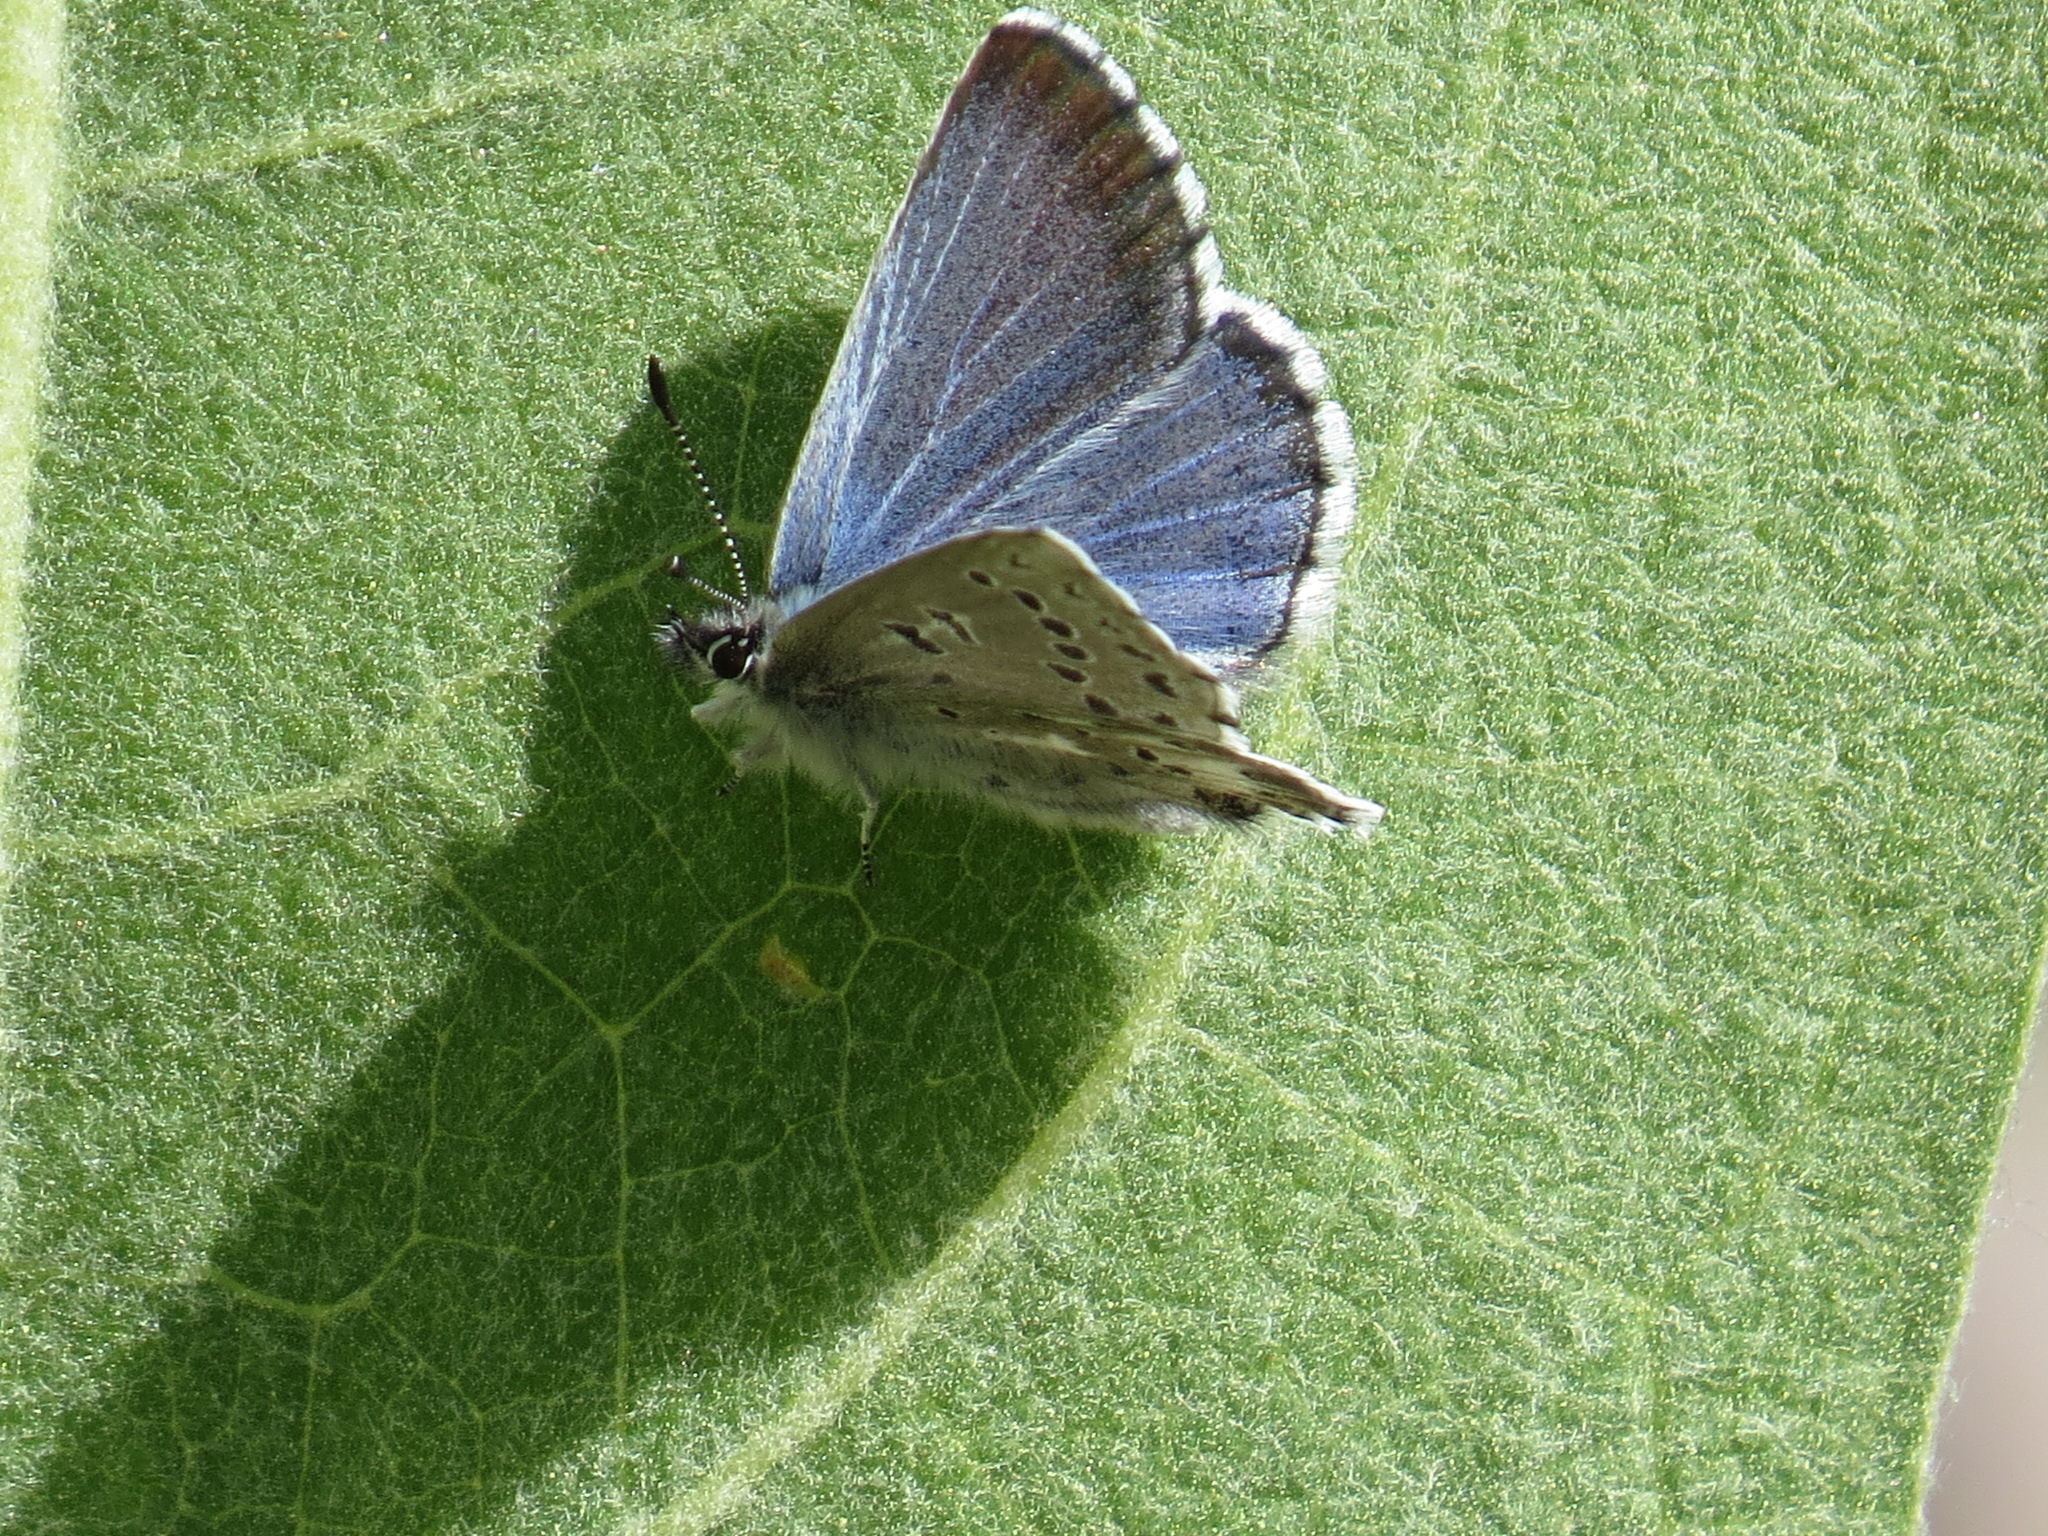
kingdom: Animalia
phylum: Arthropoda
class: Insecta
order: Lepidoptera
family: Lycaenidae
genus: Glaucopsyche
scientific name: Glaucopsyche piasus
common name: Arrowhead blue
